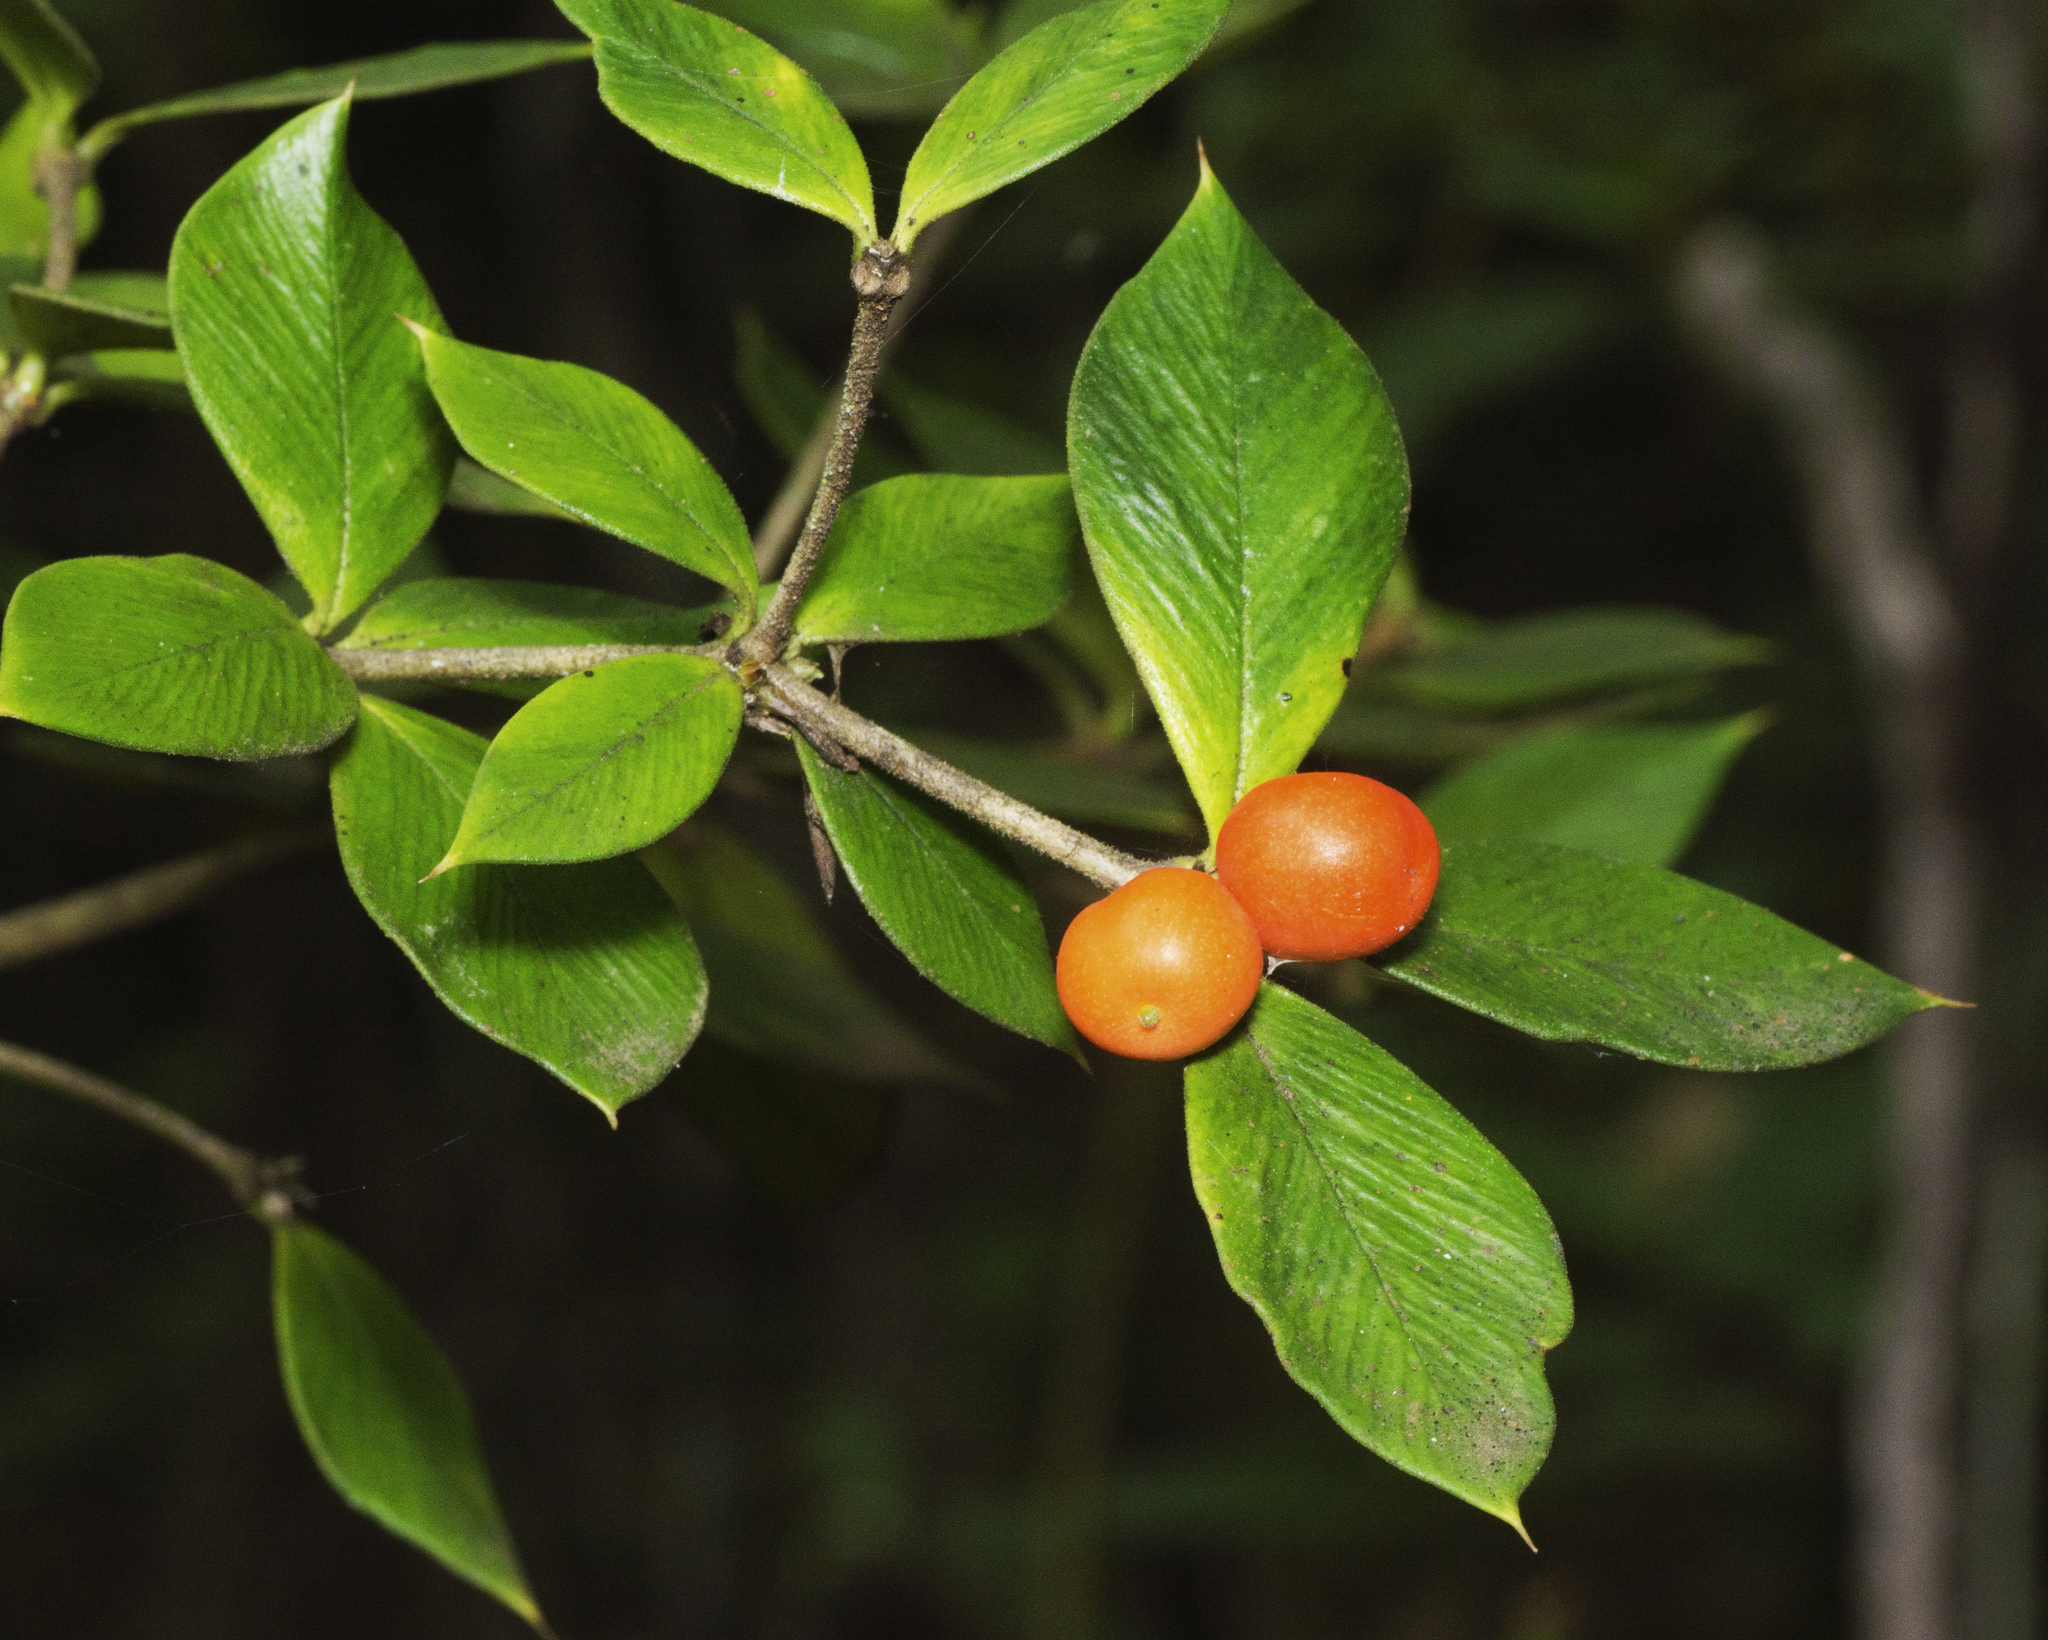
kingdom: Plantae
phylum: Tracheophyta
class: Magnoliopsida
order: Gentianales
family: Apocynaceae
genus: Alyxia
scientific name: Alyxia ruscifolia
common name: Chainfruit
